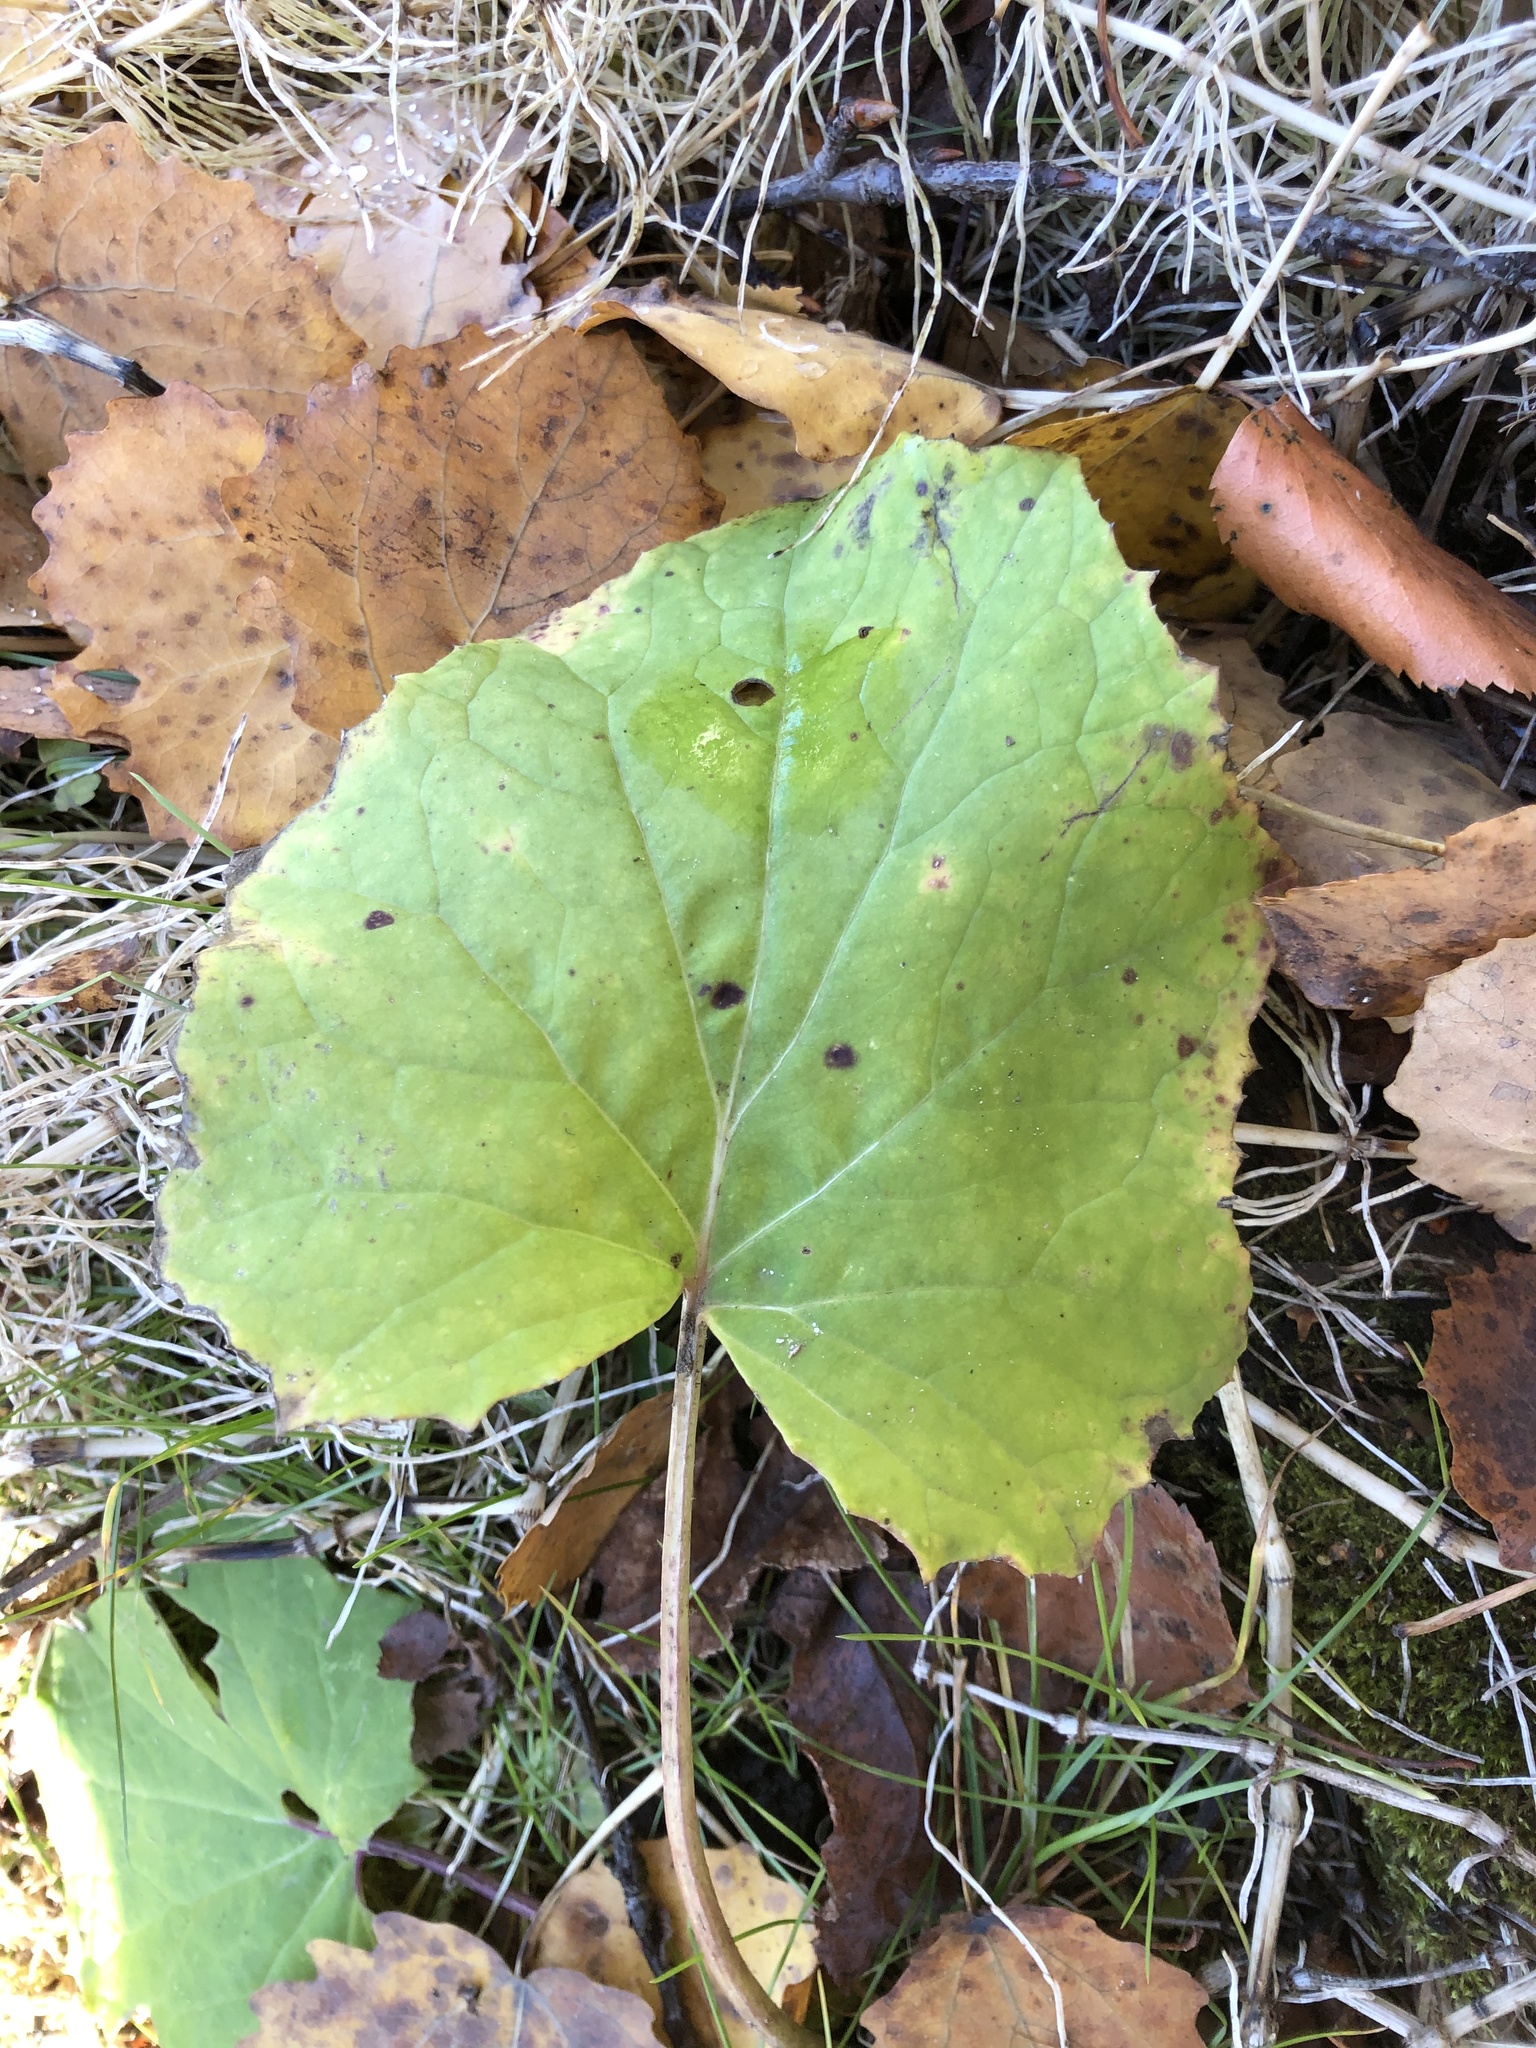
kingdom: Plantae
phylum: Tracheophyta
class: Magnoliopsida
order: Asterales
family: Asteraceae
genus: Tussilago
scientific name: Tussilago farfara
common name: Coltsfoot
